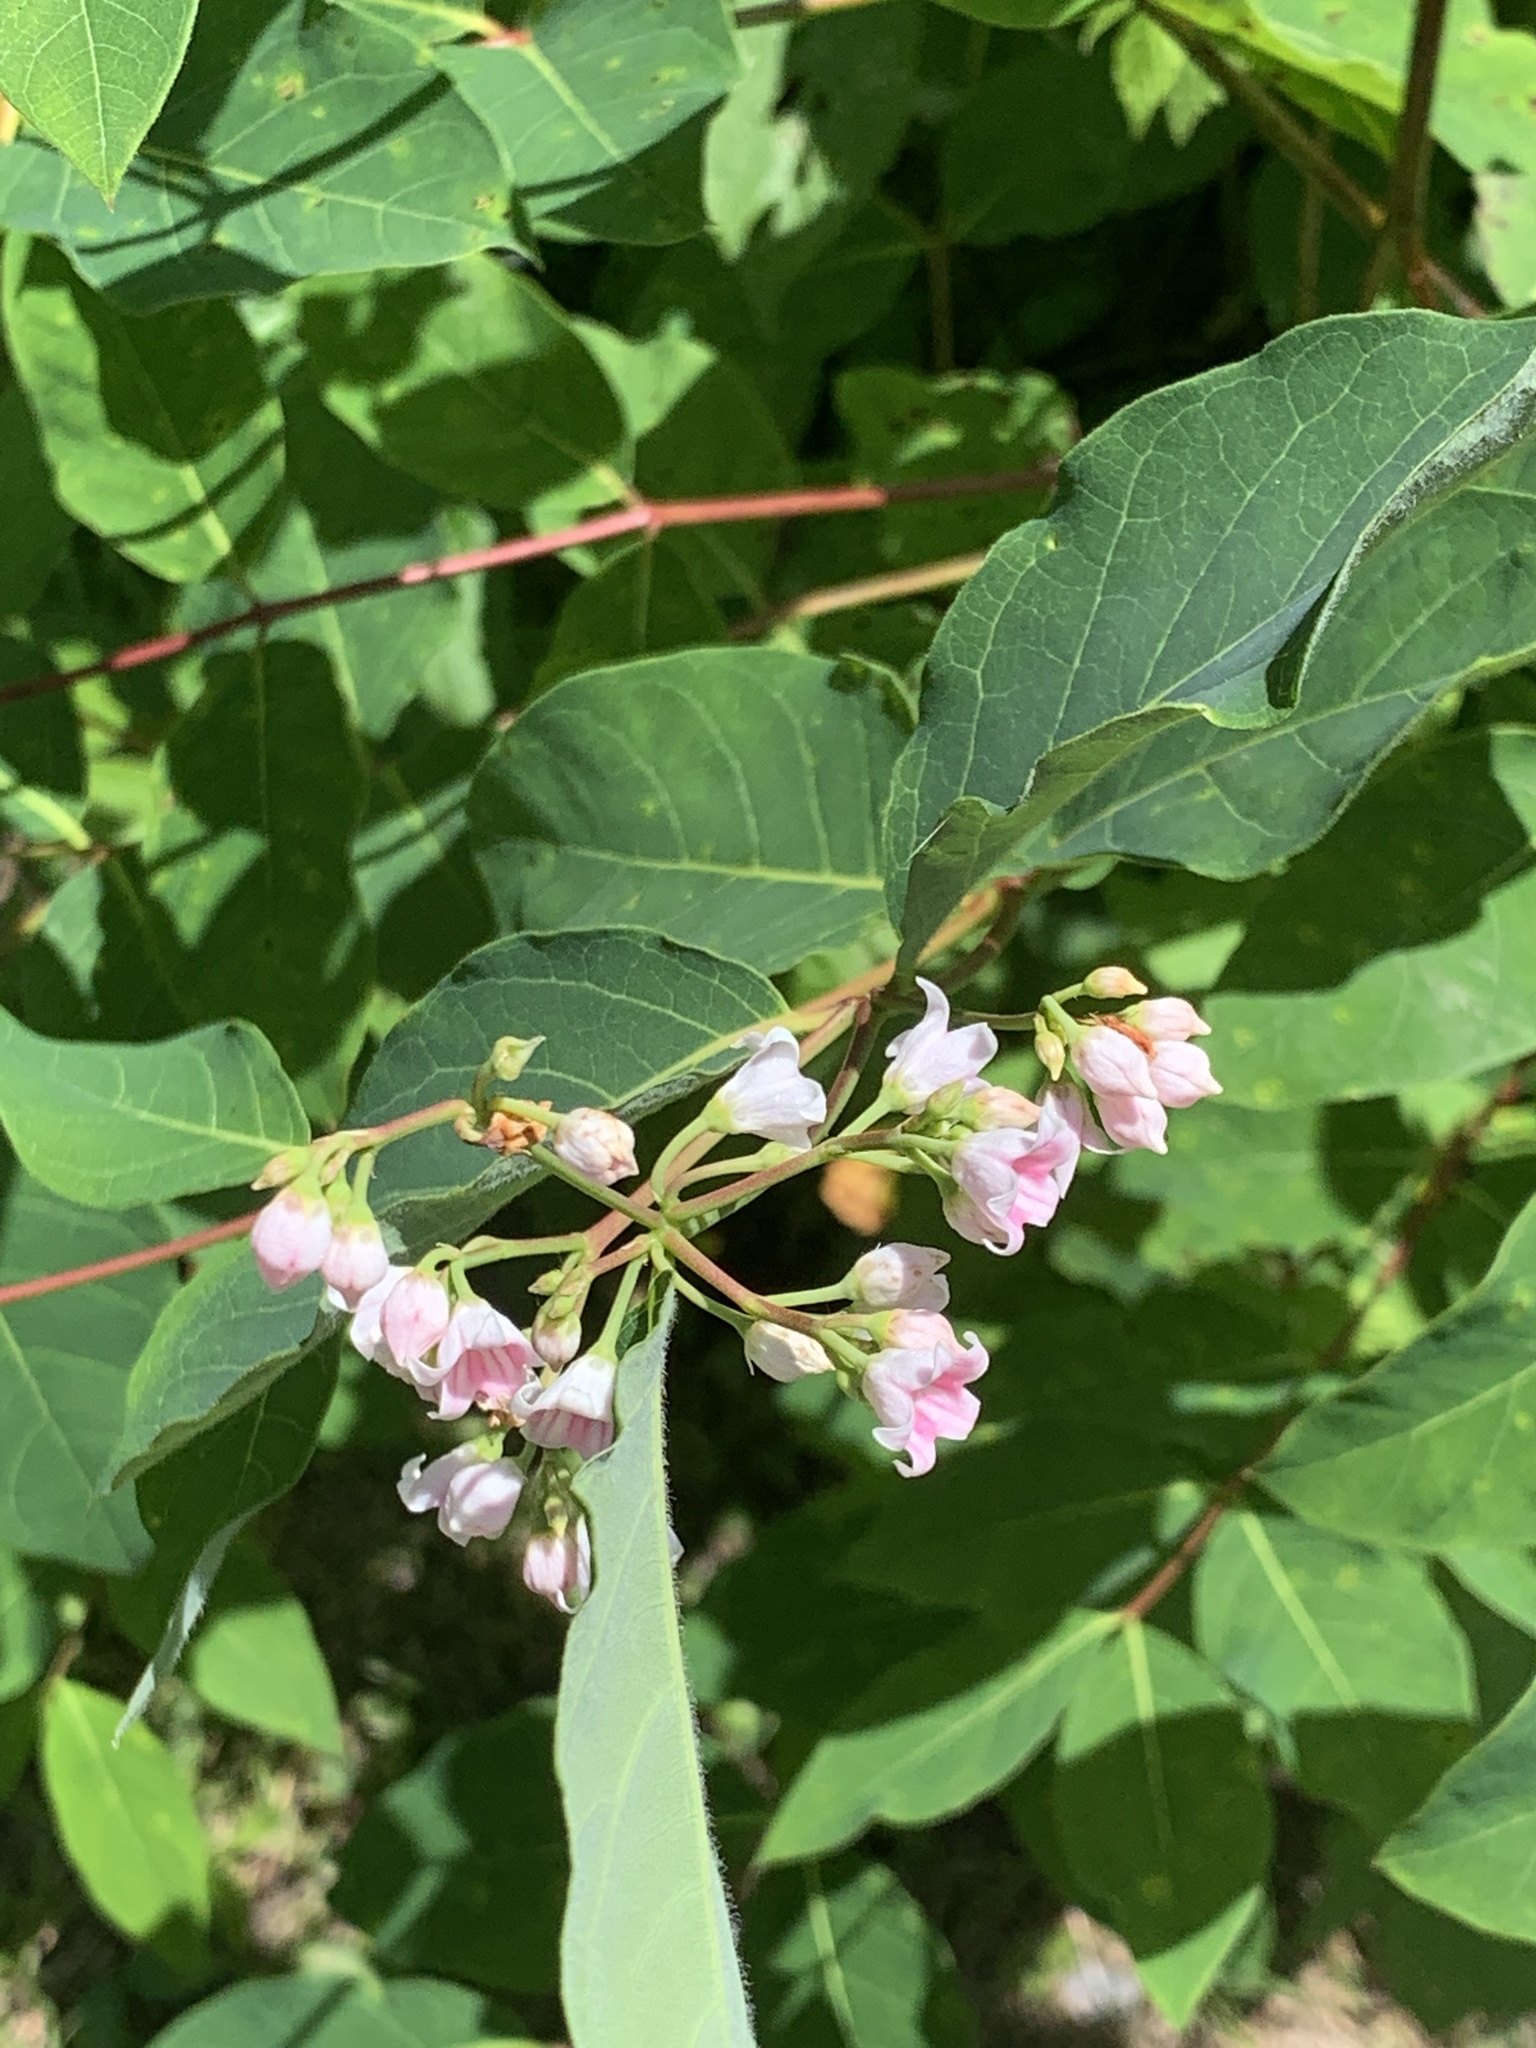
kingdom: Plantae
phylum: Tracheophyta
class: Magnoliopsida
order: Gentianales
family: Apocynaceae
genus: Apocynum
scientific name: Apocynum androsaemifolium
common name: Spreading dogbane
